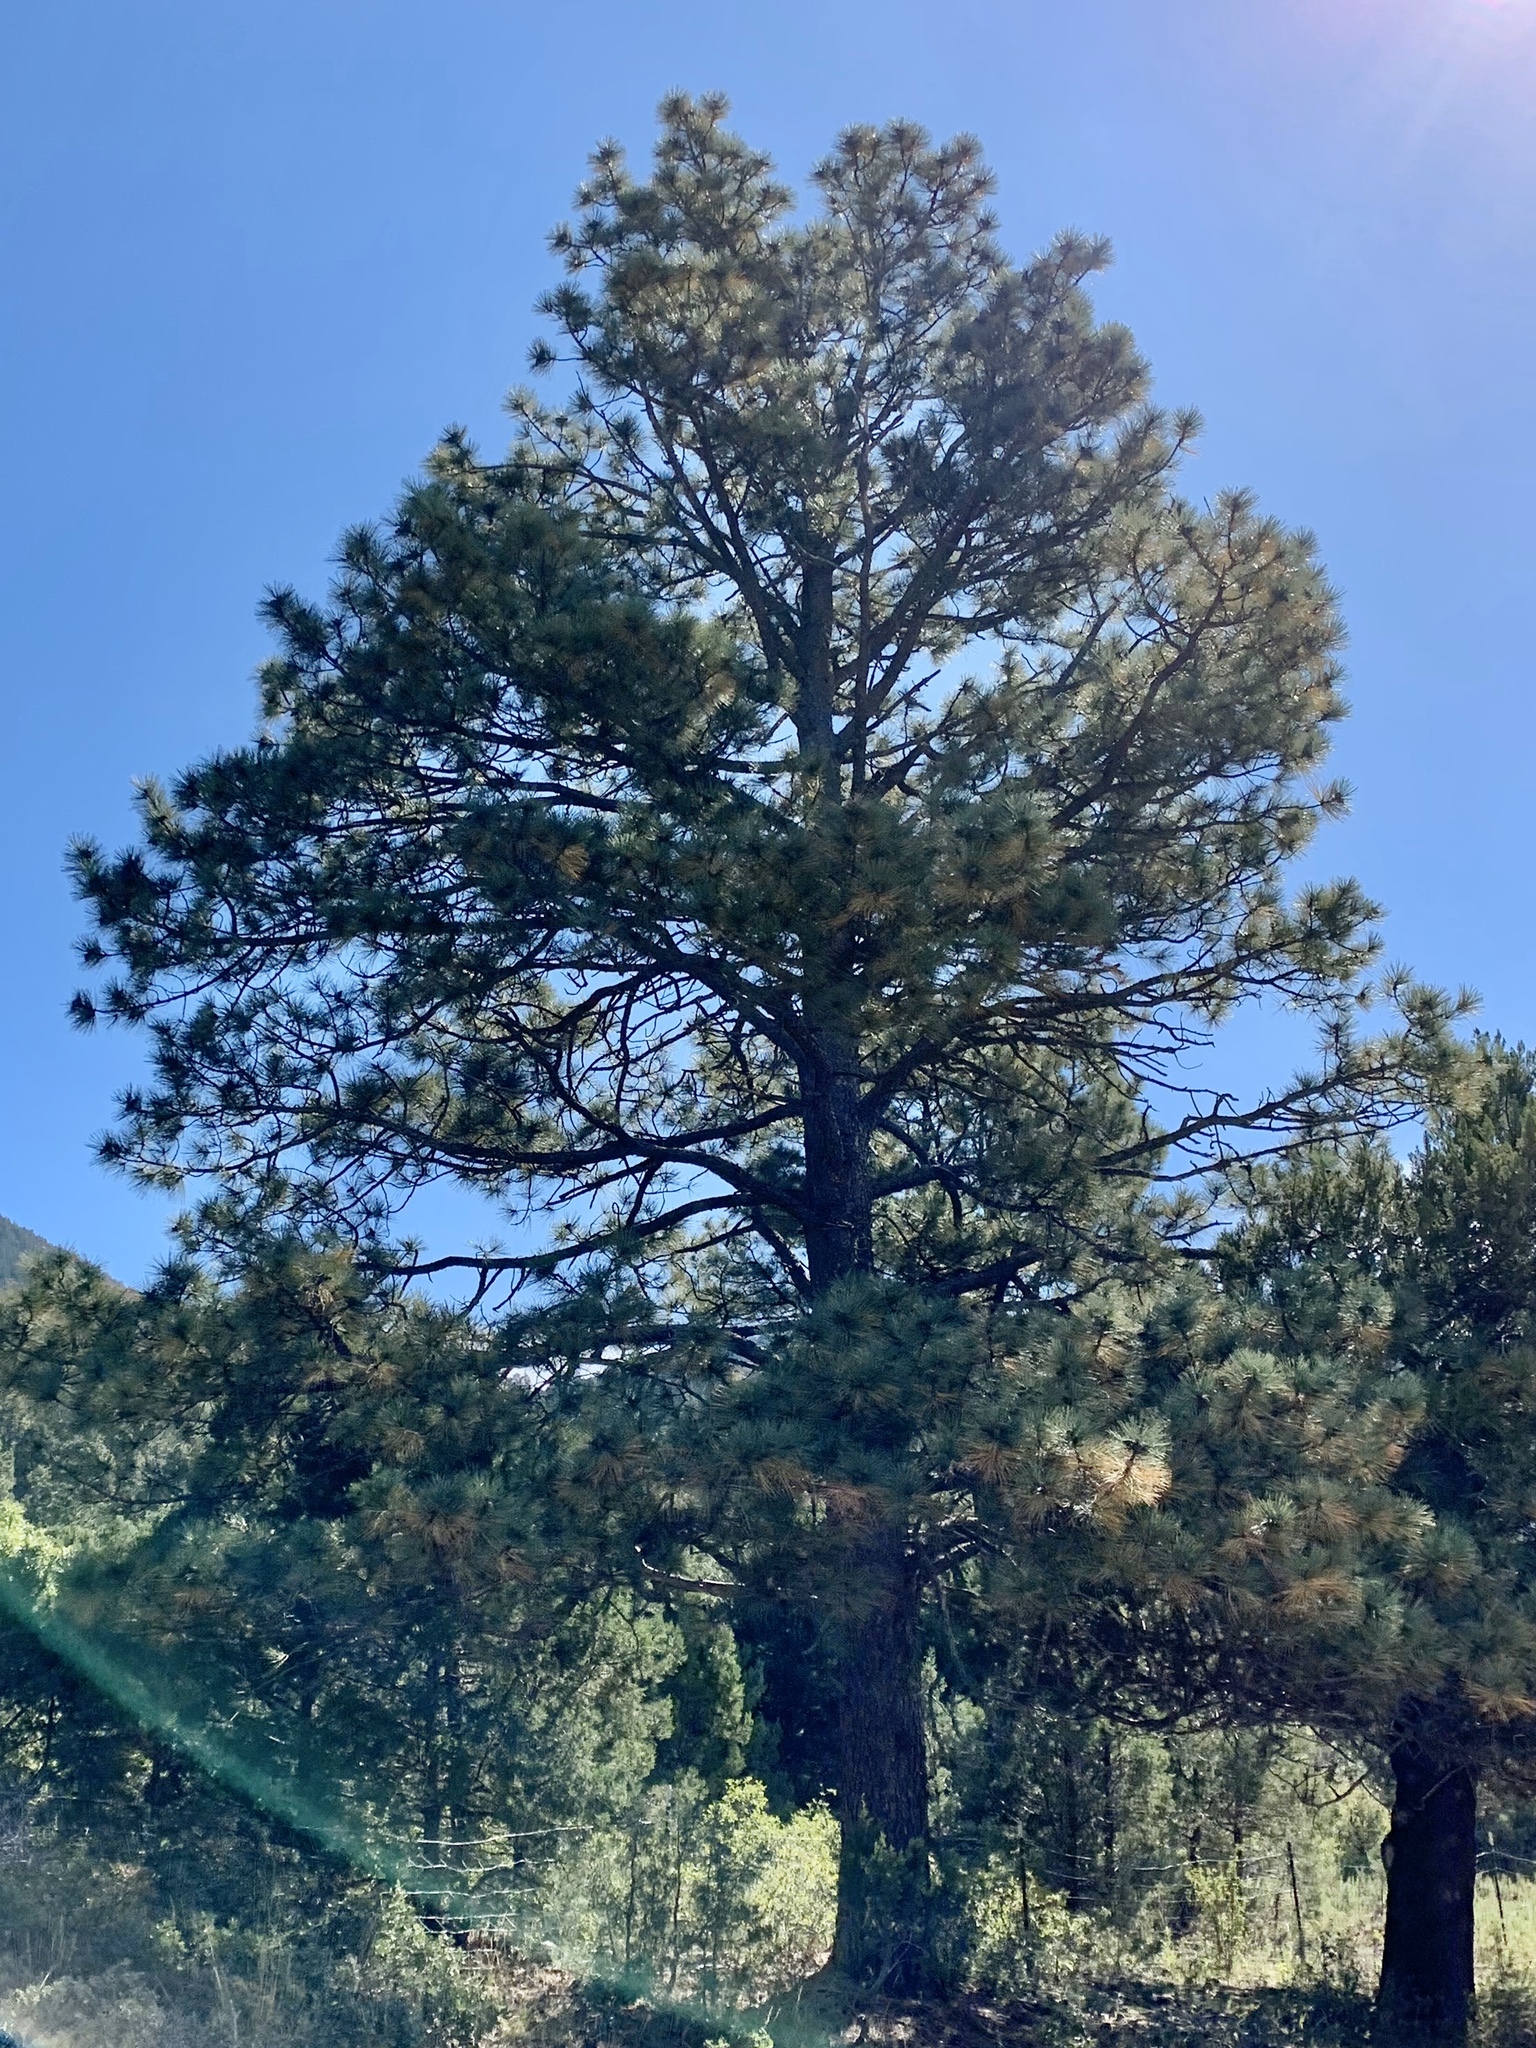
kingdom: Plantae
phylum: Tracheophyta
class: Pinopsida
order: Pinales
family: Pinaceae
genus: Pinus
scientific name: Pinus ponderosa
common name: Western yellow-pine
